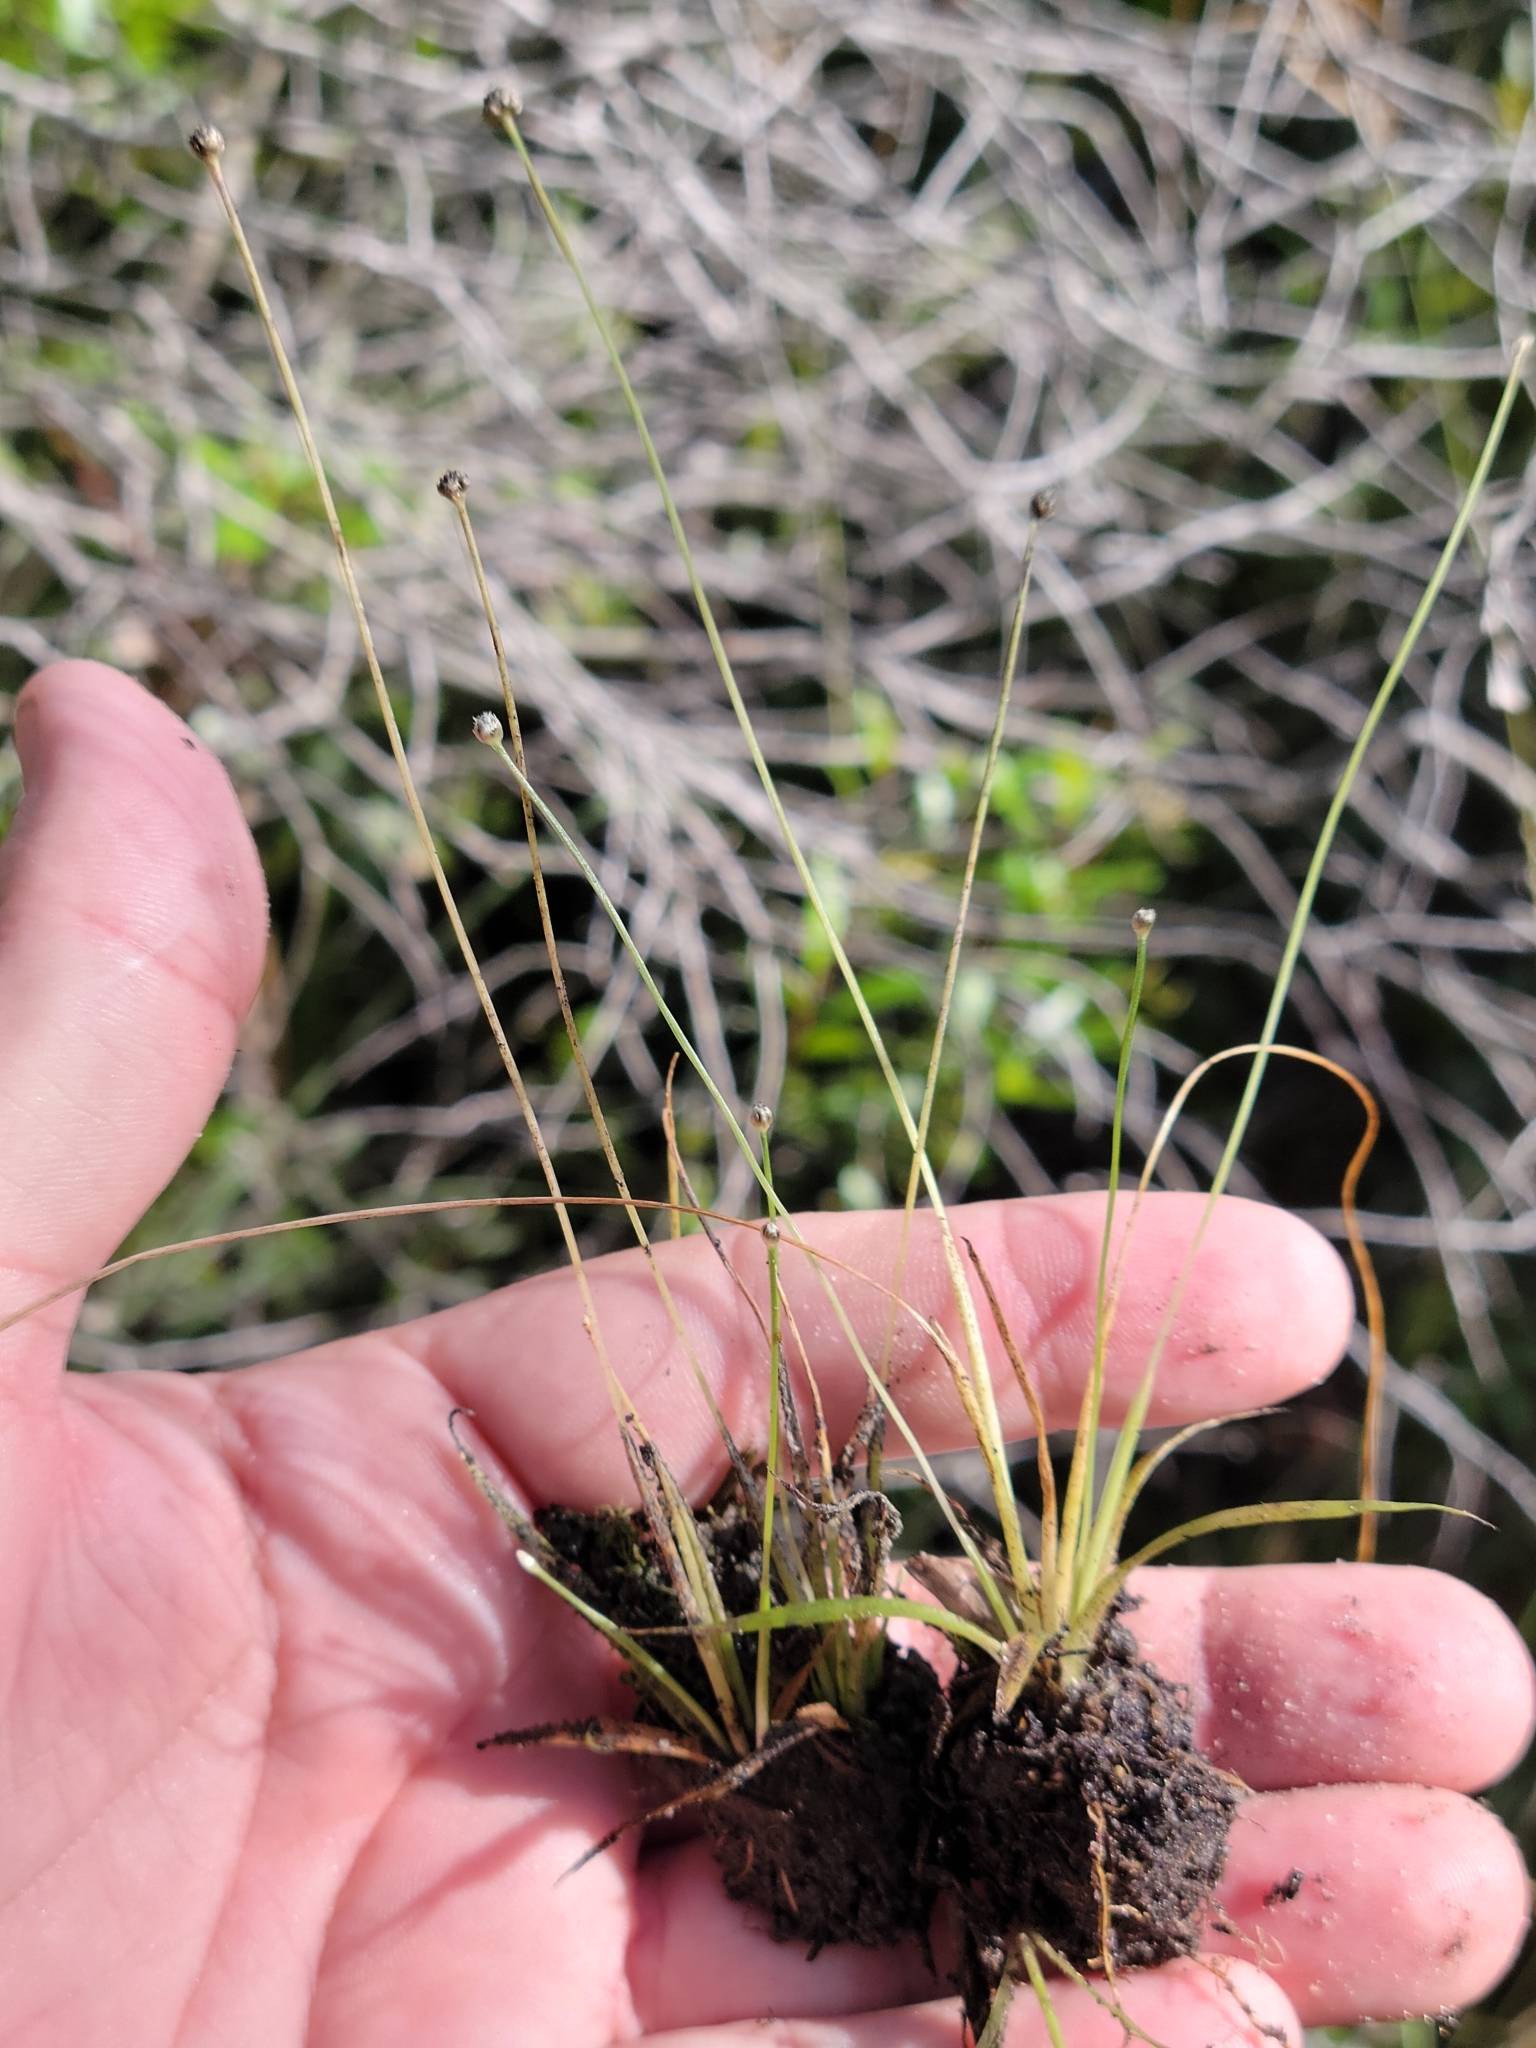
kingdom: Plantae
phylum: Tracheophyta
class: Liliopsida
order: Poales
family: Eriocaulaceae
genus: Eriocaulon
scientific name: Eriocaulon ravenelii
